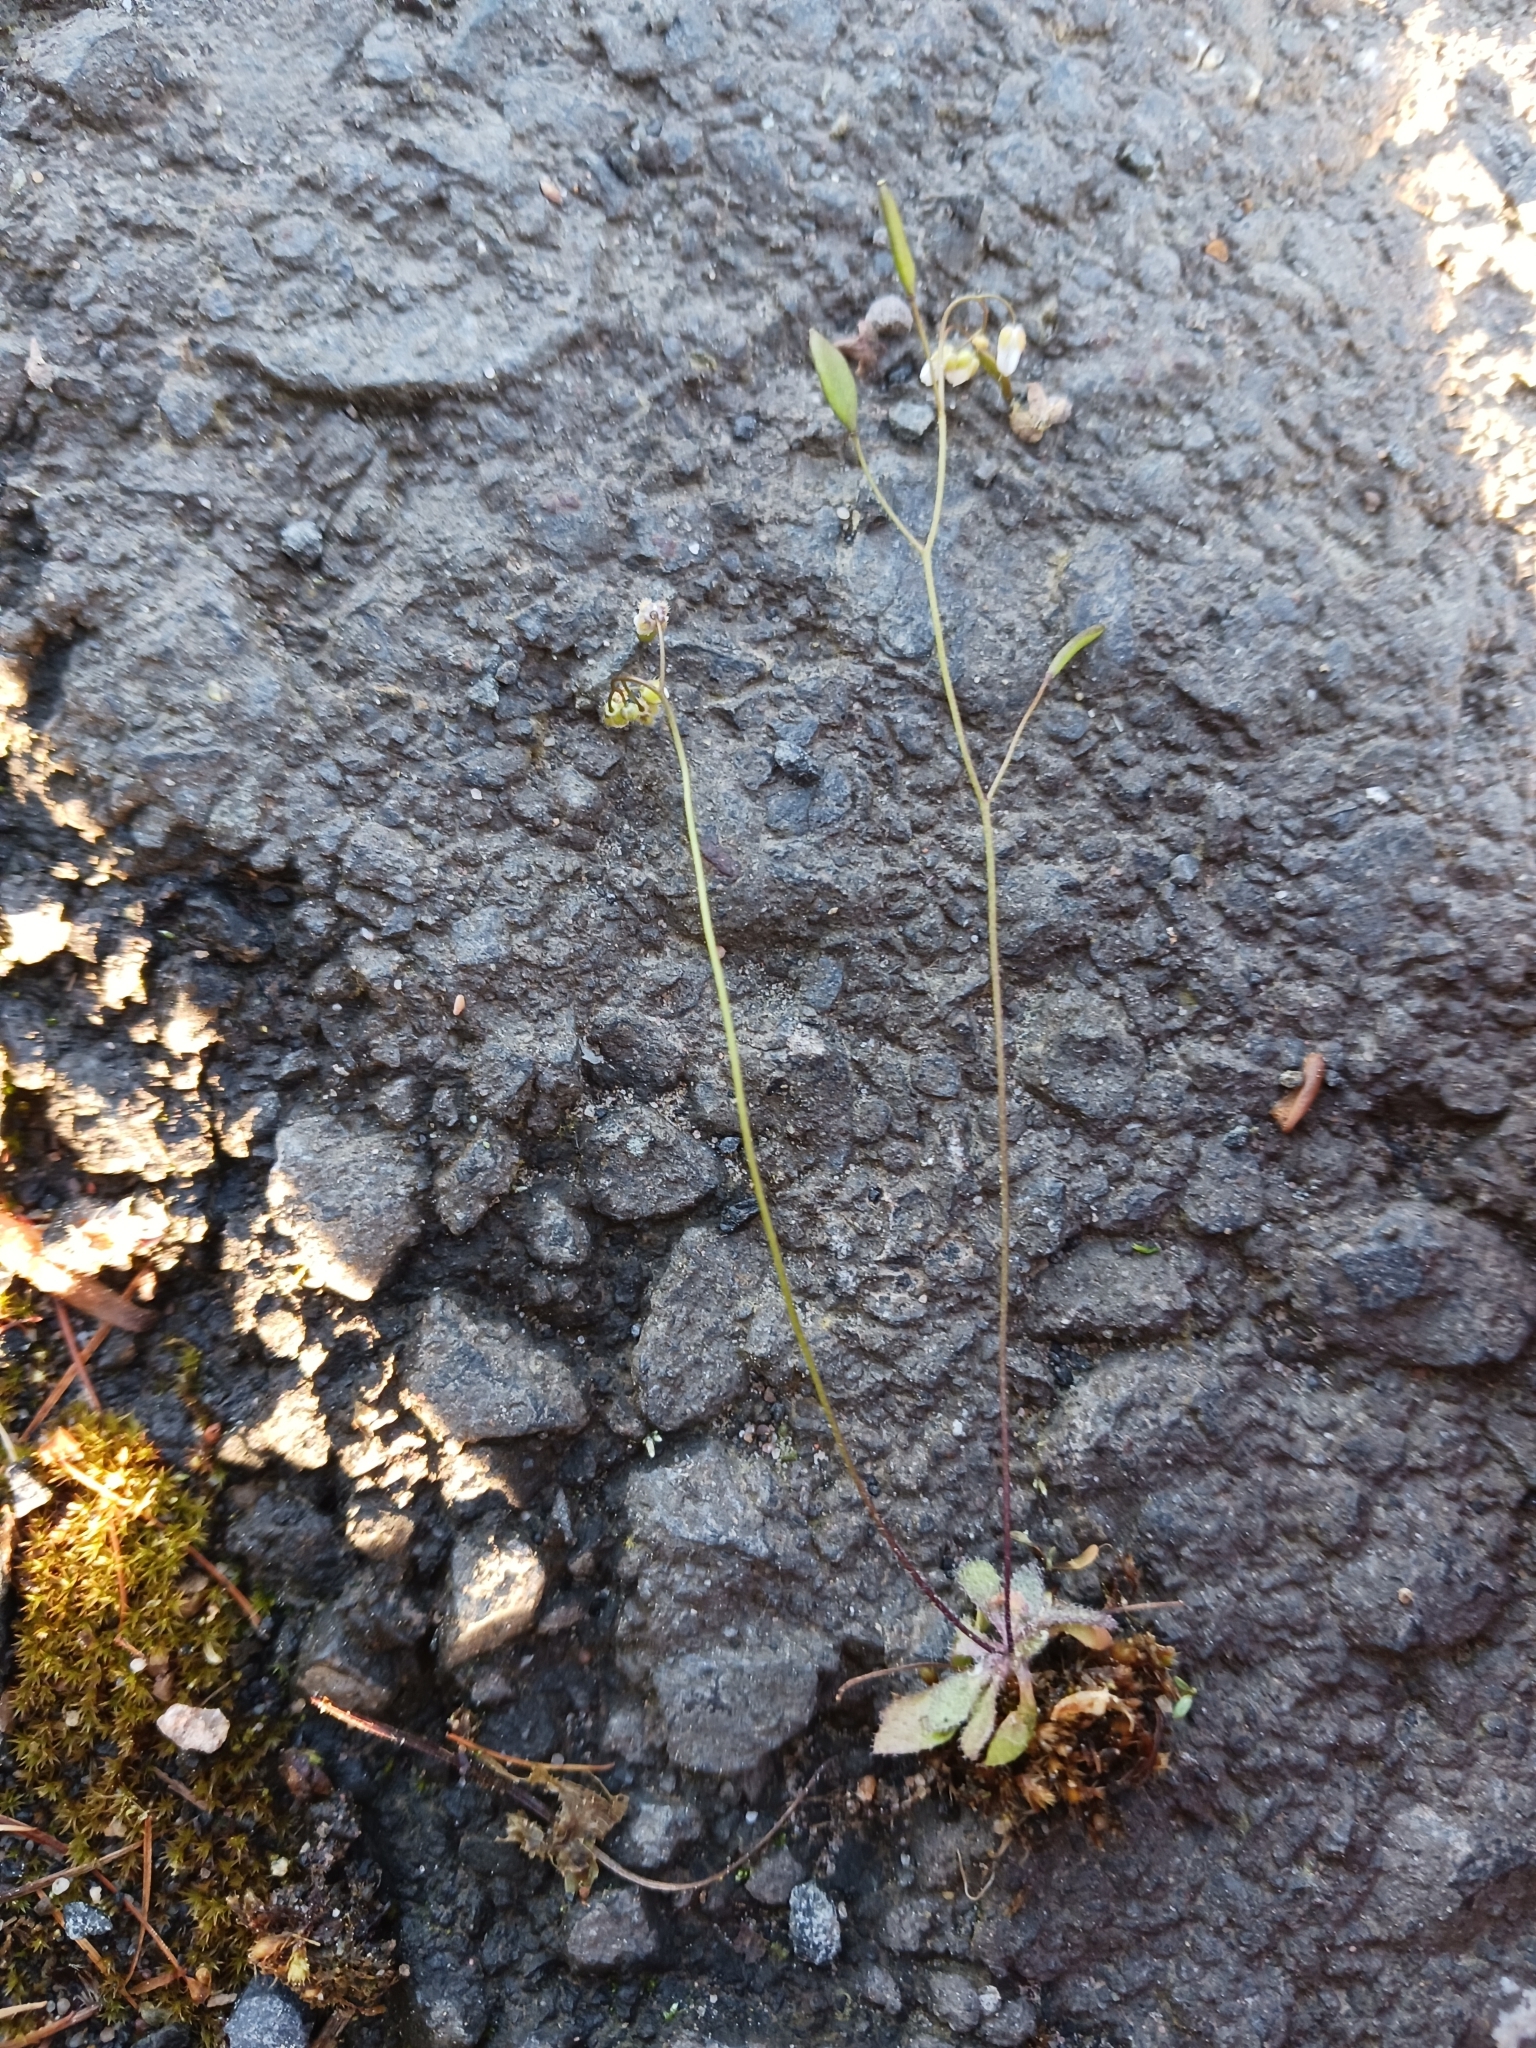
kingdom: Plantae
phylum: Tracheophyta
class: Magnoliopsida
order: Brassicales
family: Brassicaceae
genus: Draba
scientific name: Draba verna
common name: Spring draba
